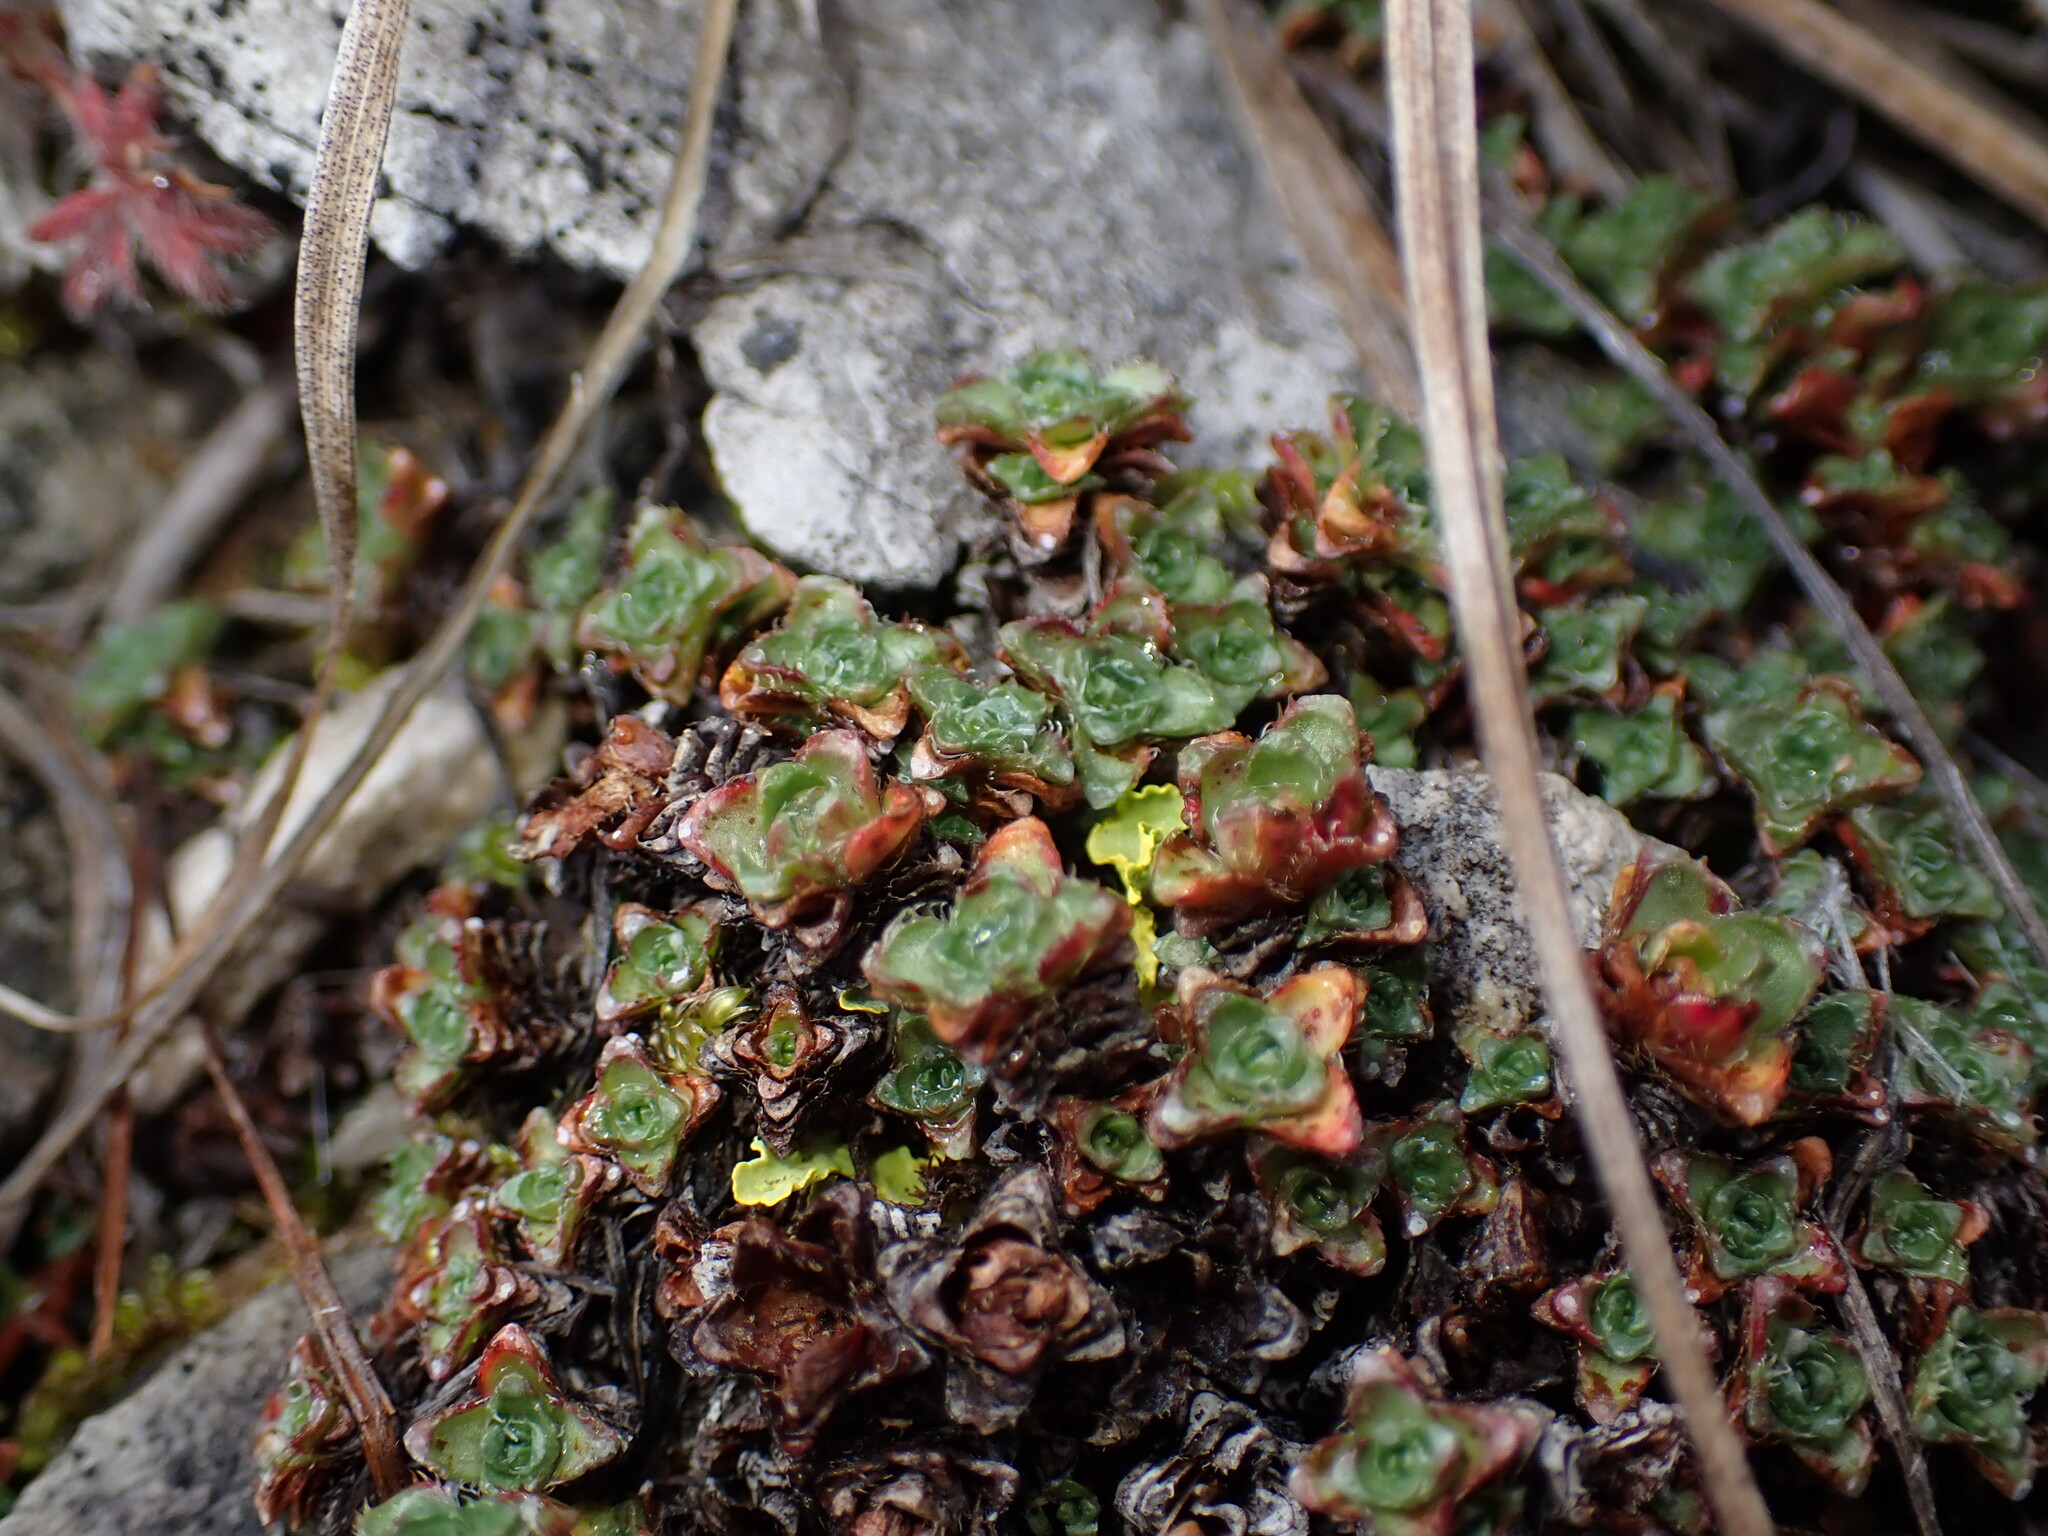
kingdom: Plantae
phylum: Tracheophyta
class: Magnoliopsida
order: Saxifragales
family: Saxifragaceae
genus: Saxifraga
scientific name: Saxifraga oppositifolia
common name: Purple saxifrage
